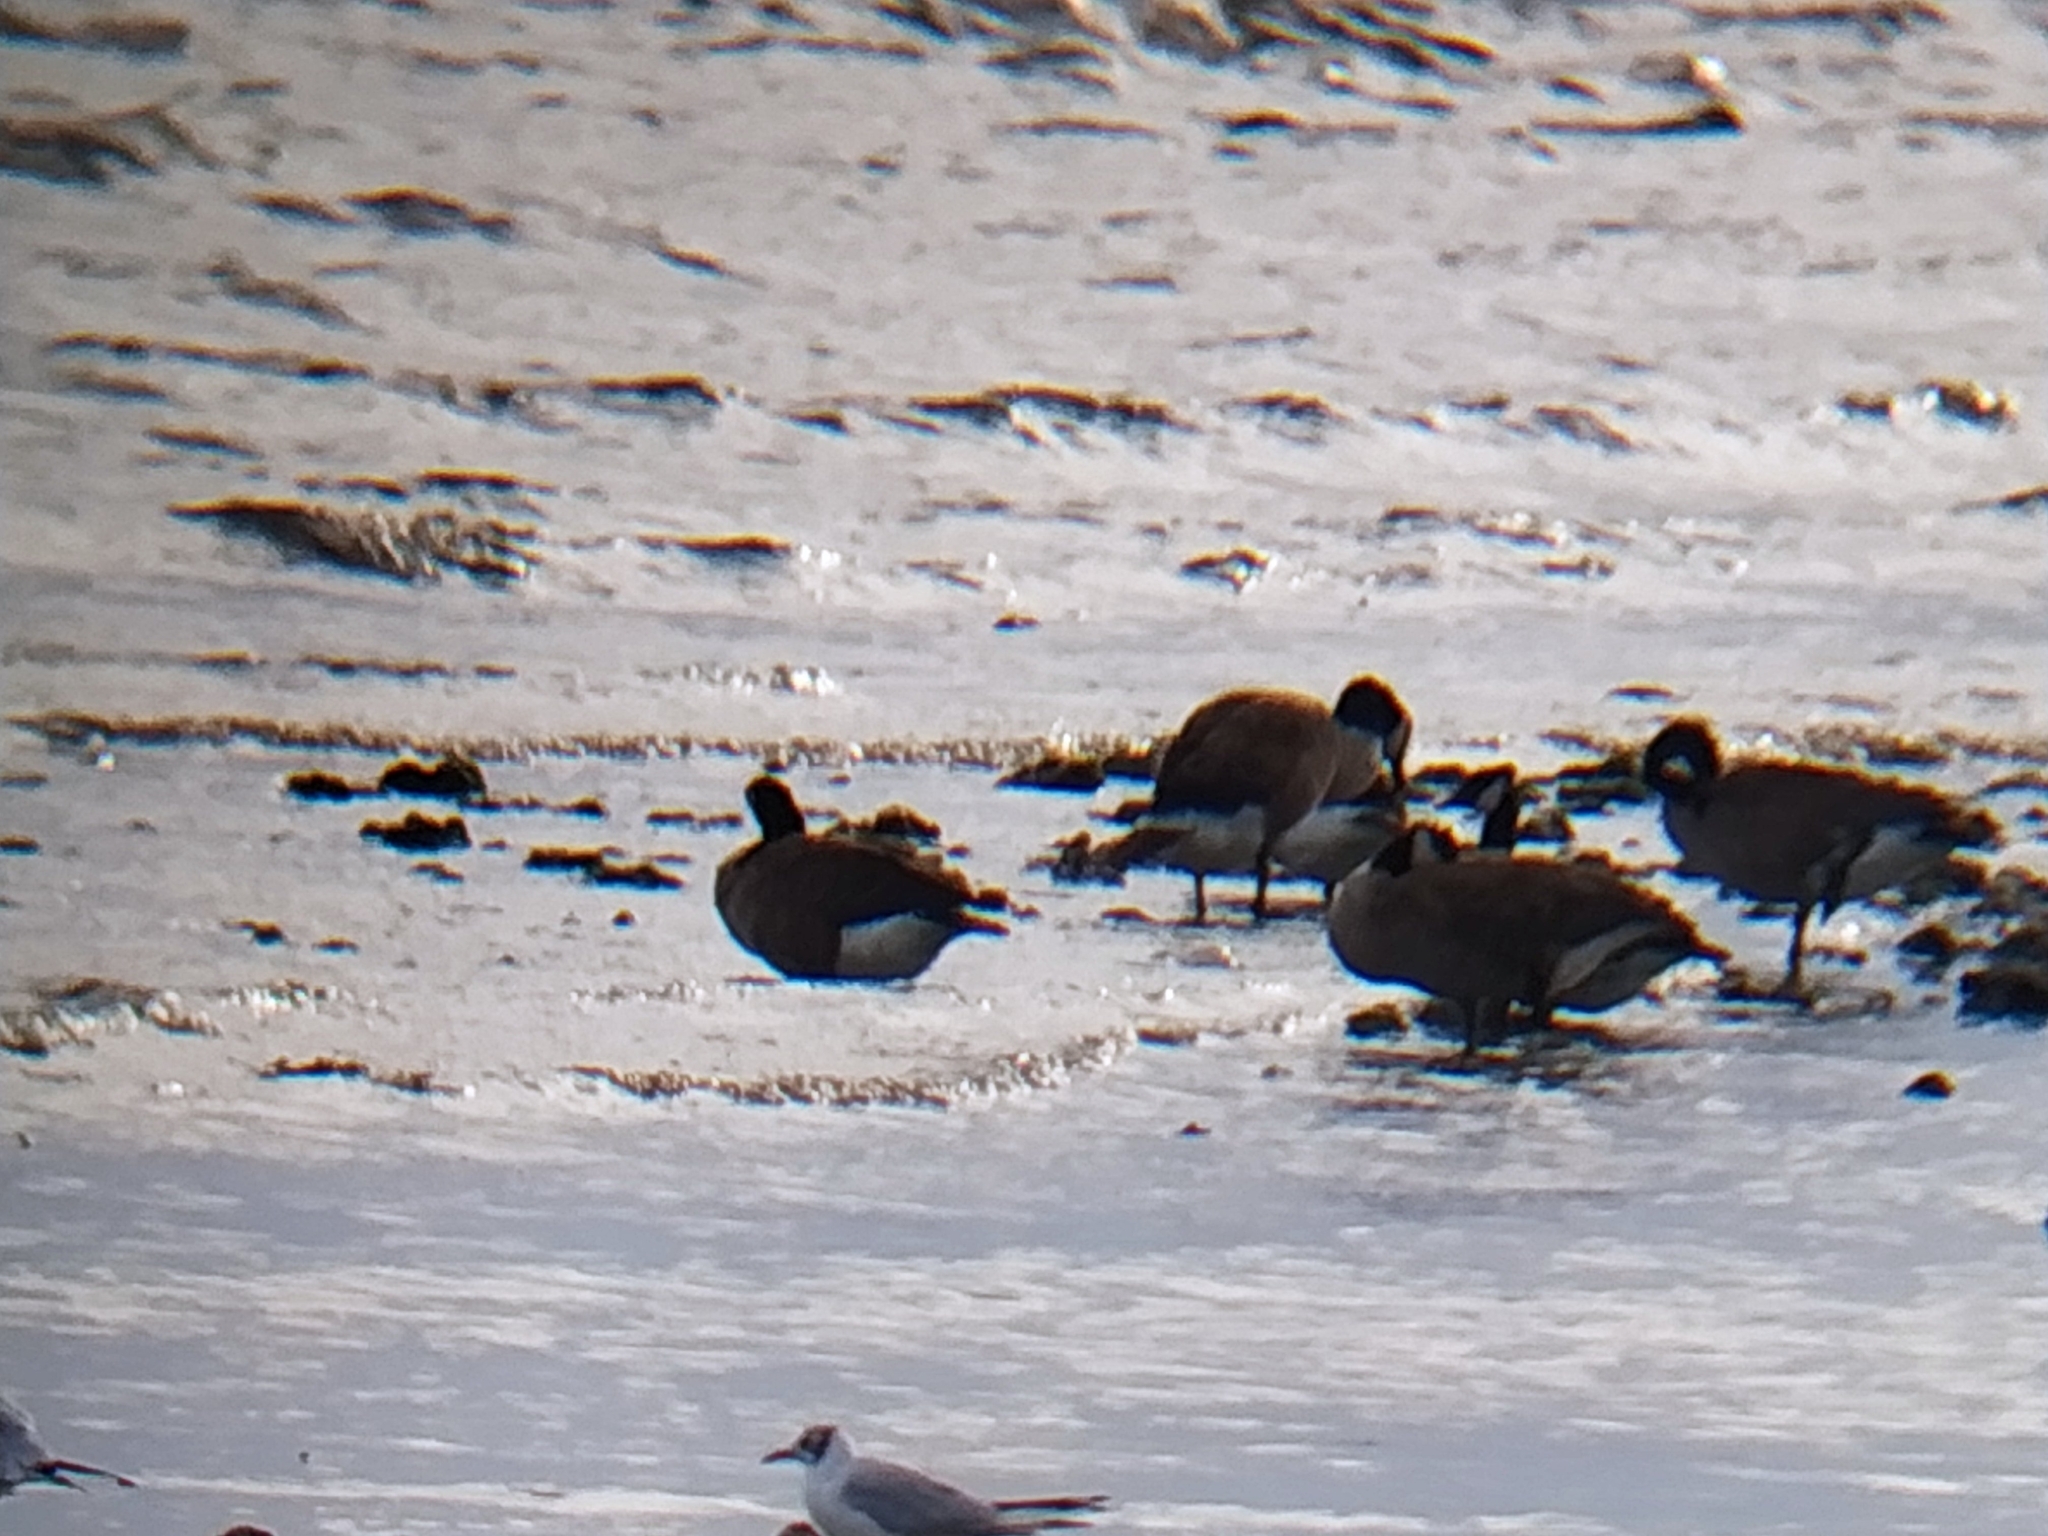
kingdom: Animalia
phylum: Chordata
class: Aves
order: Anseriformes
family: Anatidae
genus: Branta
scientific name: Branta canadensis
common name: Canada goose
